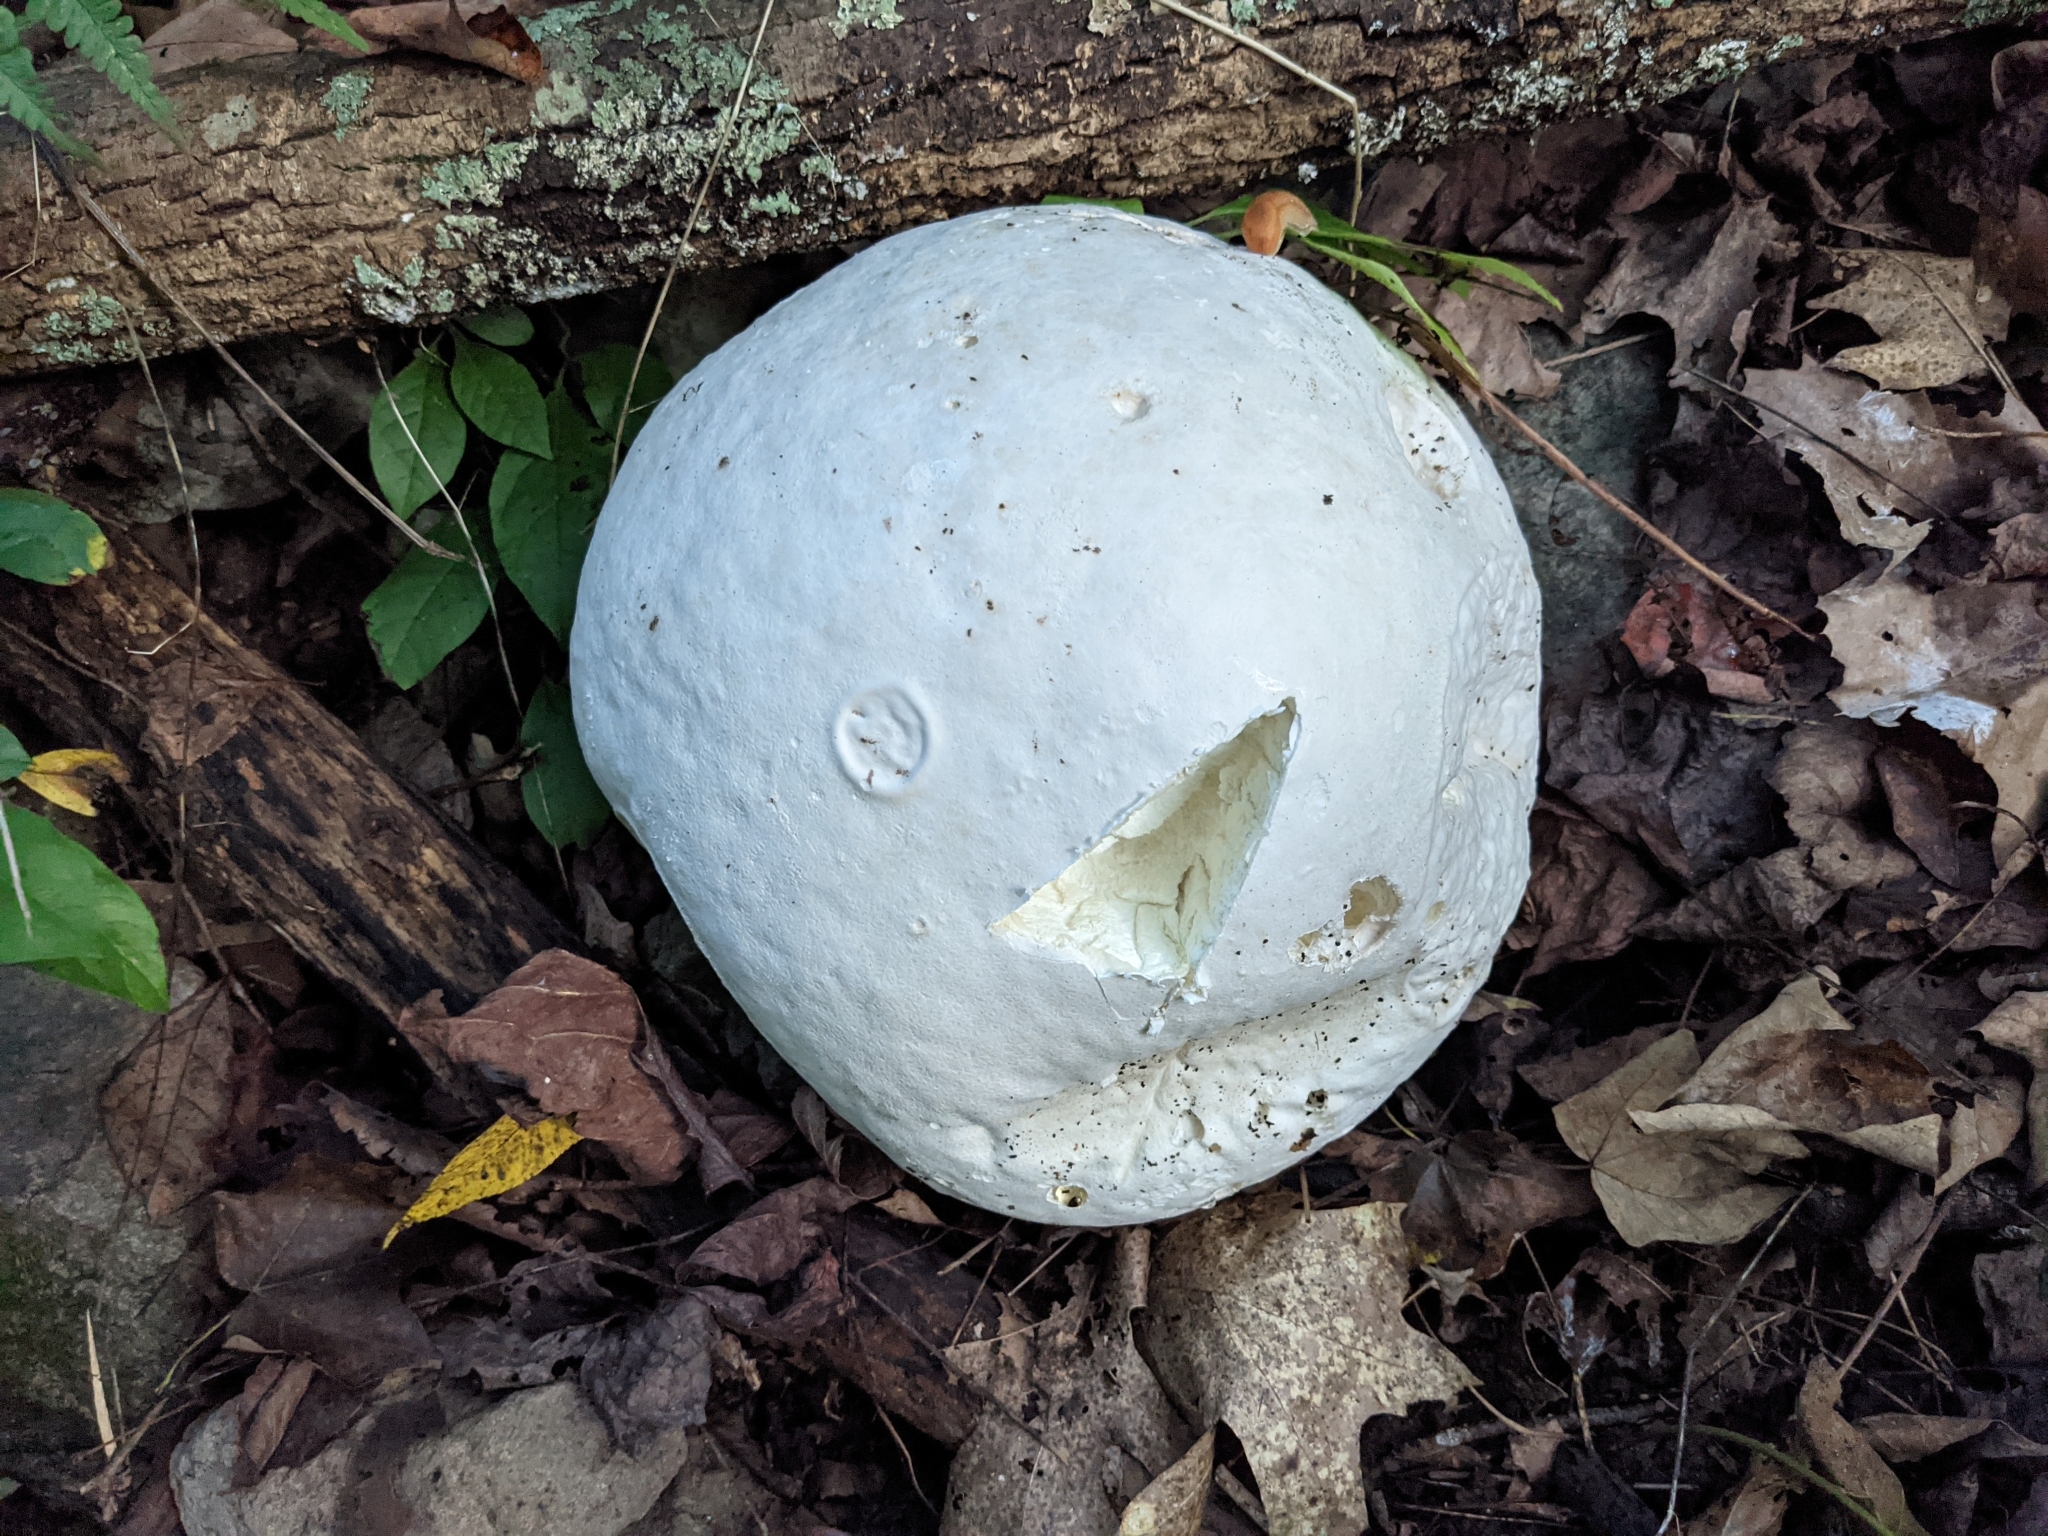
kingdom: Fungi
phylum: Basidiomycota
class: Agaricomycetes
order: Agaricales
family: Lycoperdaceae
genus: Calvatia
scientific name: Calvatia gigantea
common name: Giant puffball
